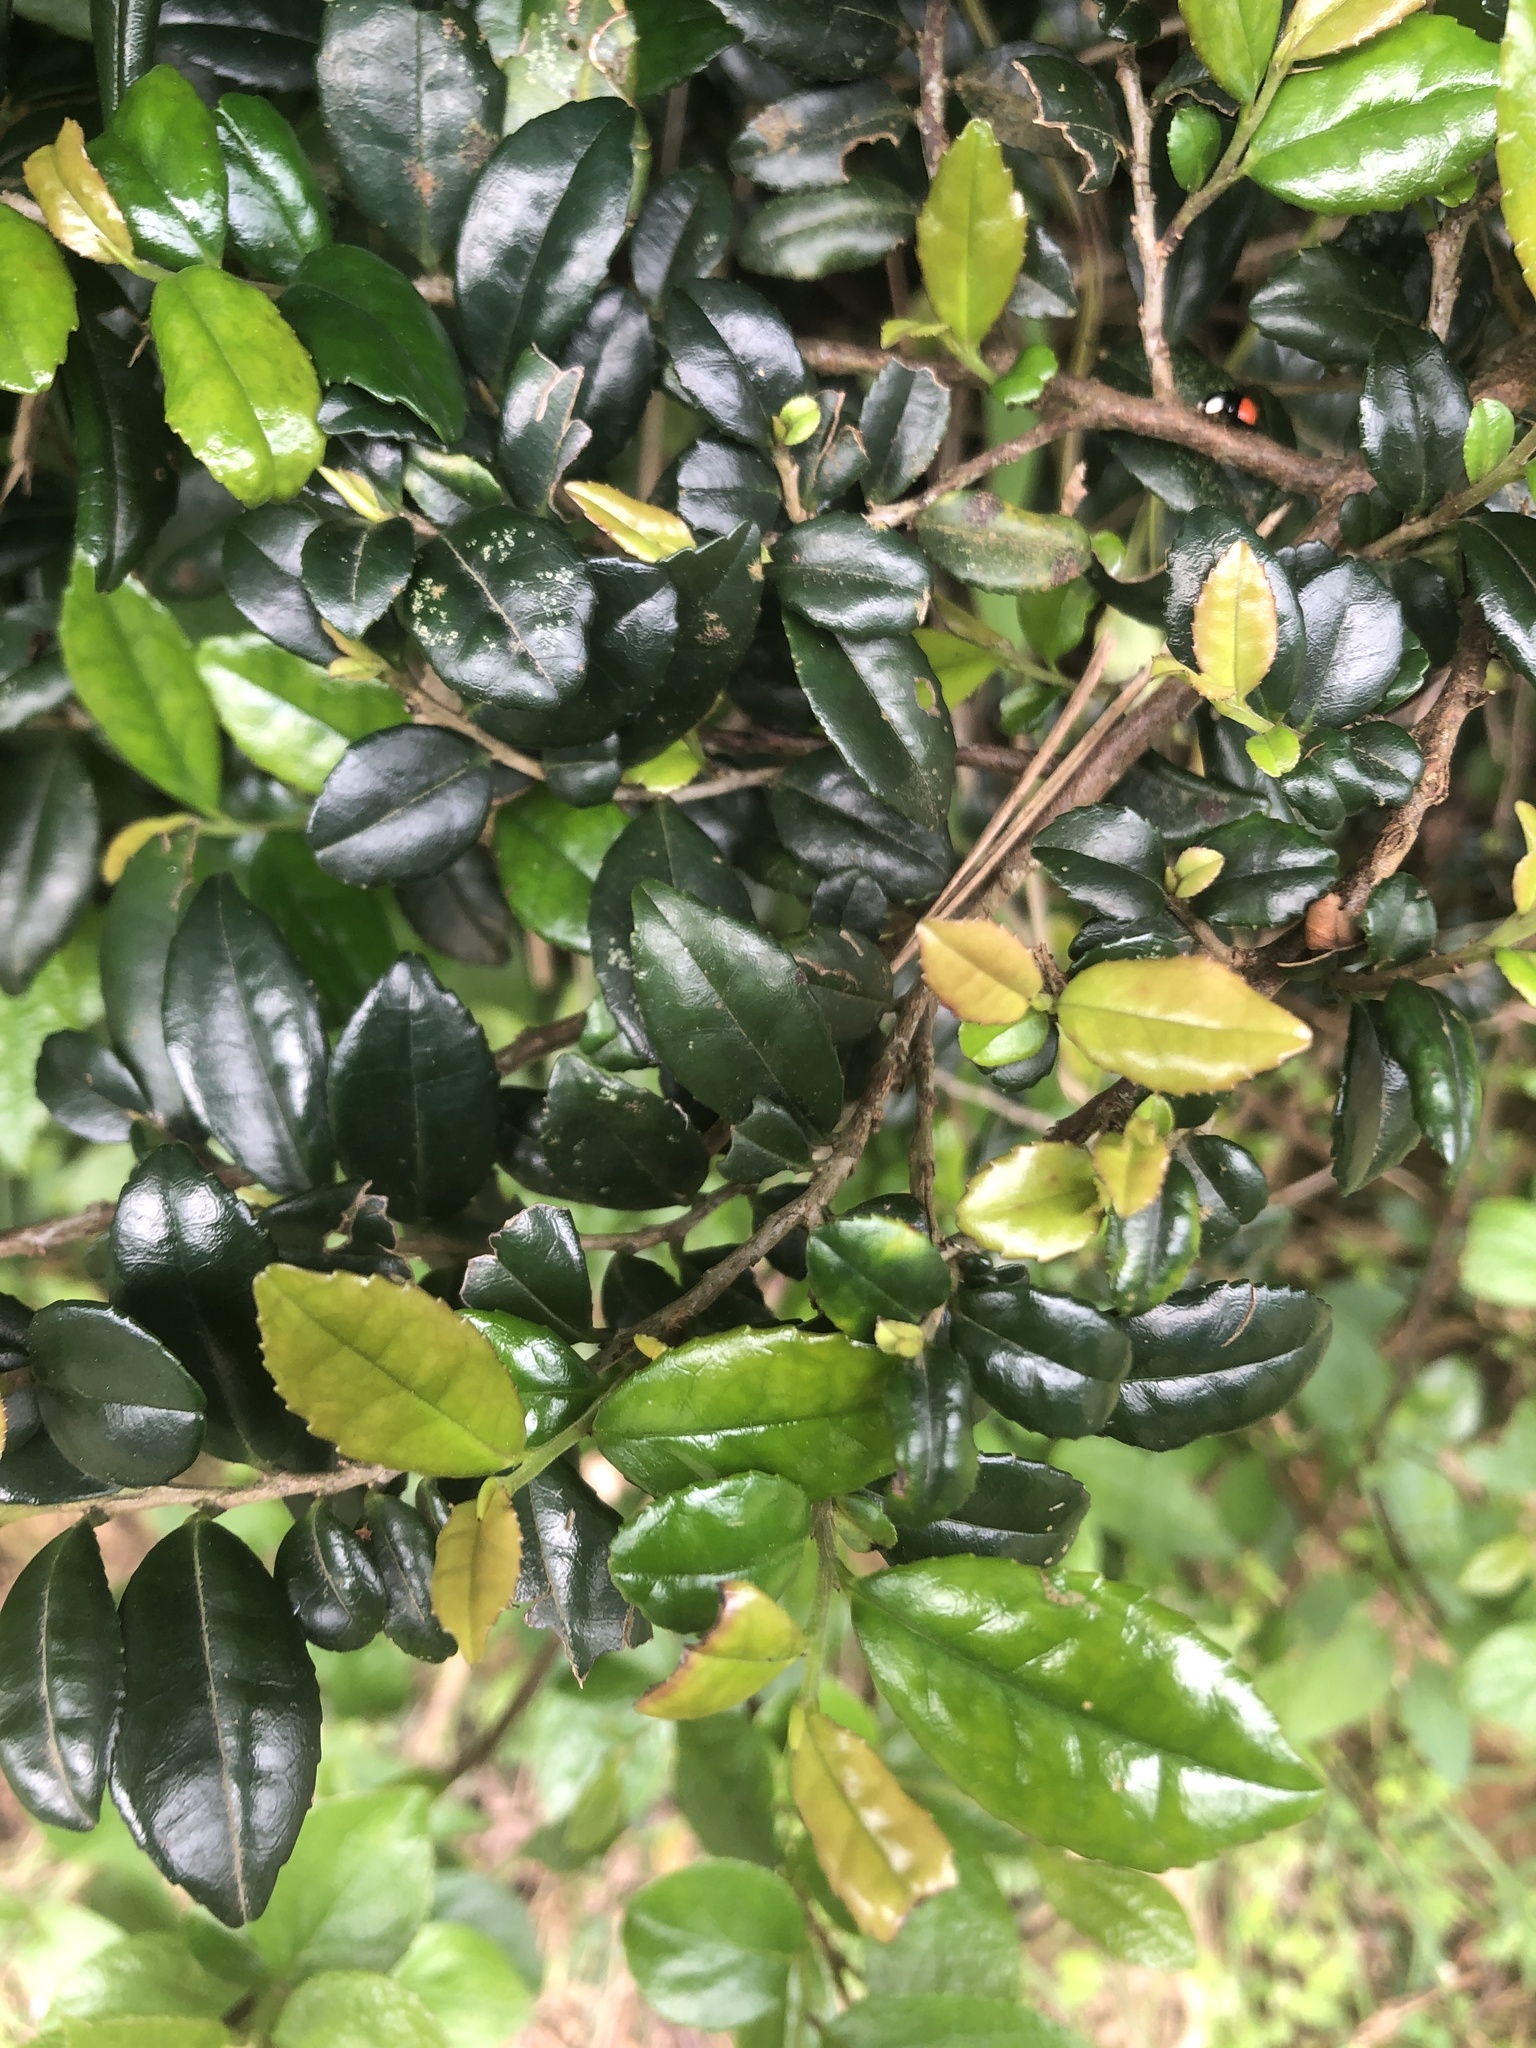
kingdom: Plantae
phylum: Tracheophyta
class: Magnoliopsida
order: Ericales
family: Pentaphylacaceae
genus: Eurya
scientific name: Eurya emarginata
